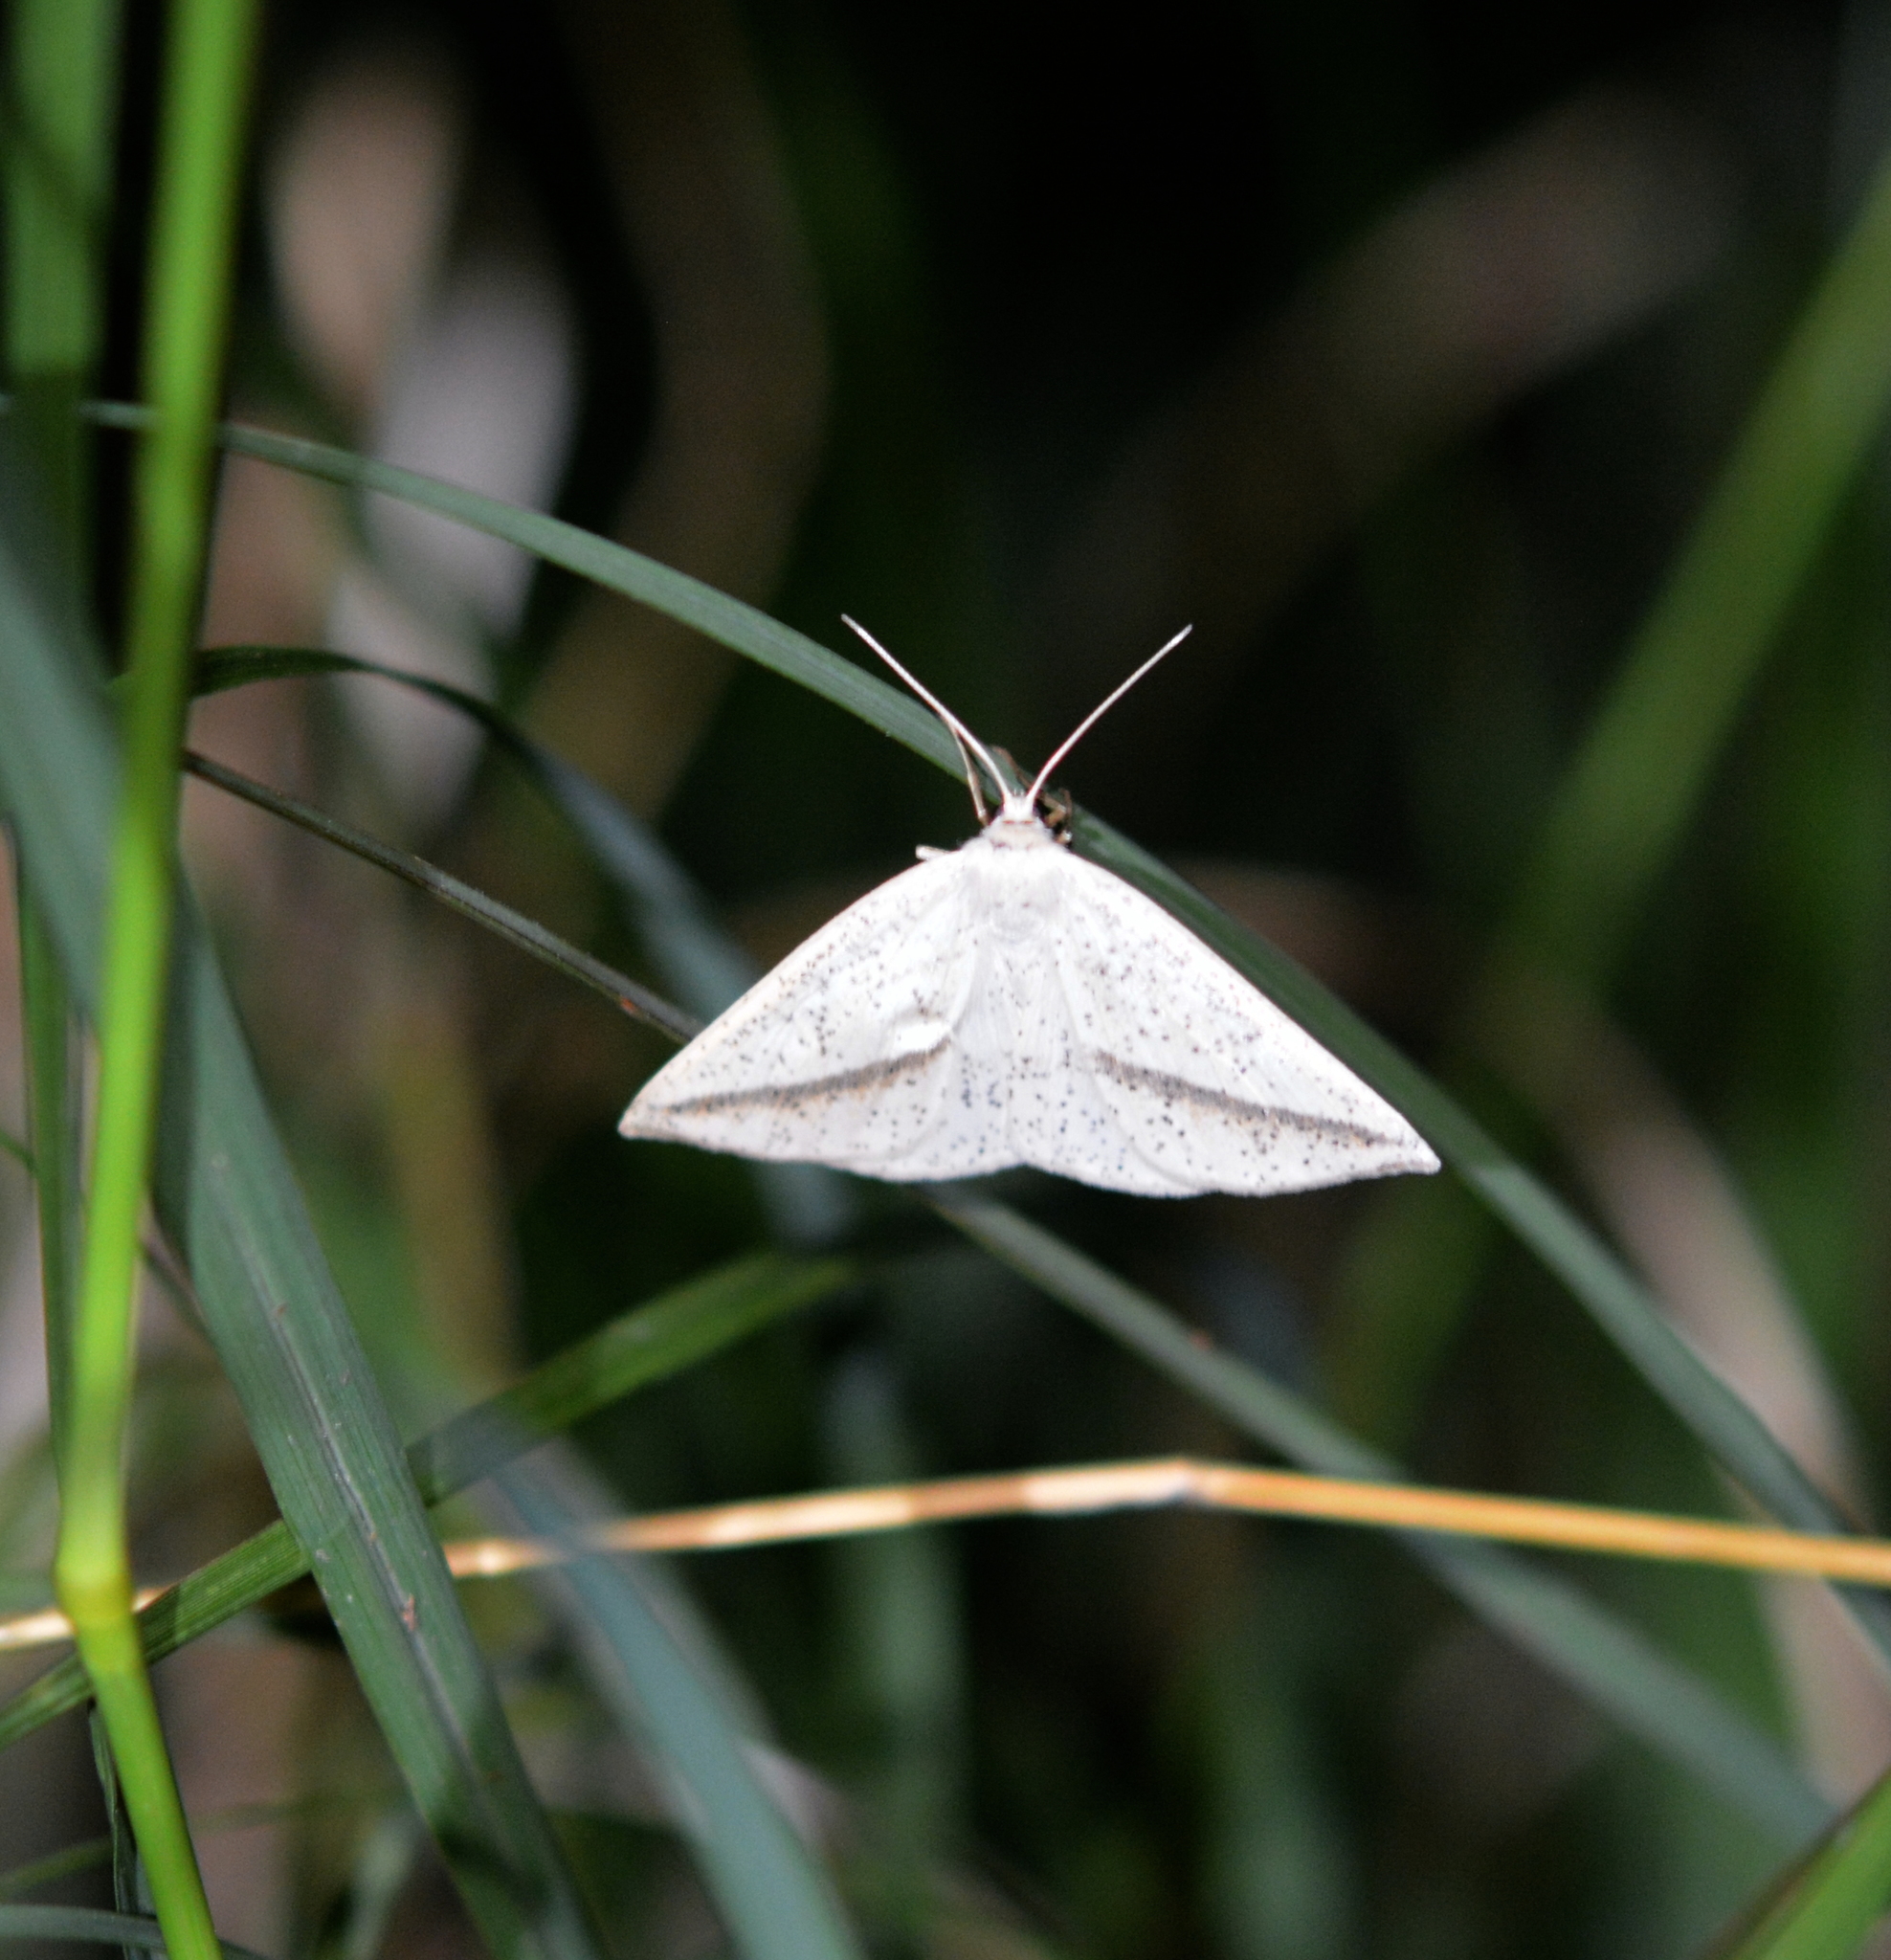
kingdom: Animalia
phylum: Arthropoda
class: Insecta
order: Lepidoptera
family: Geometridae
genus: Lychnosea
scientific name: Lychnosea intermicata
